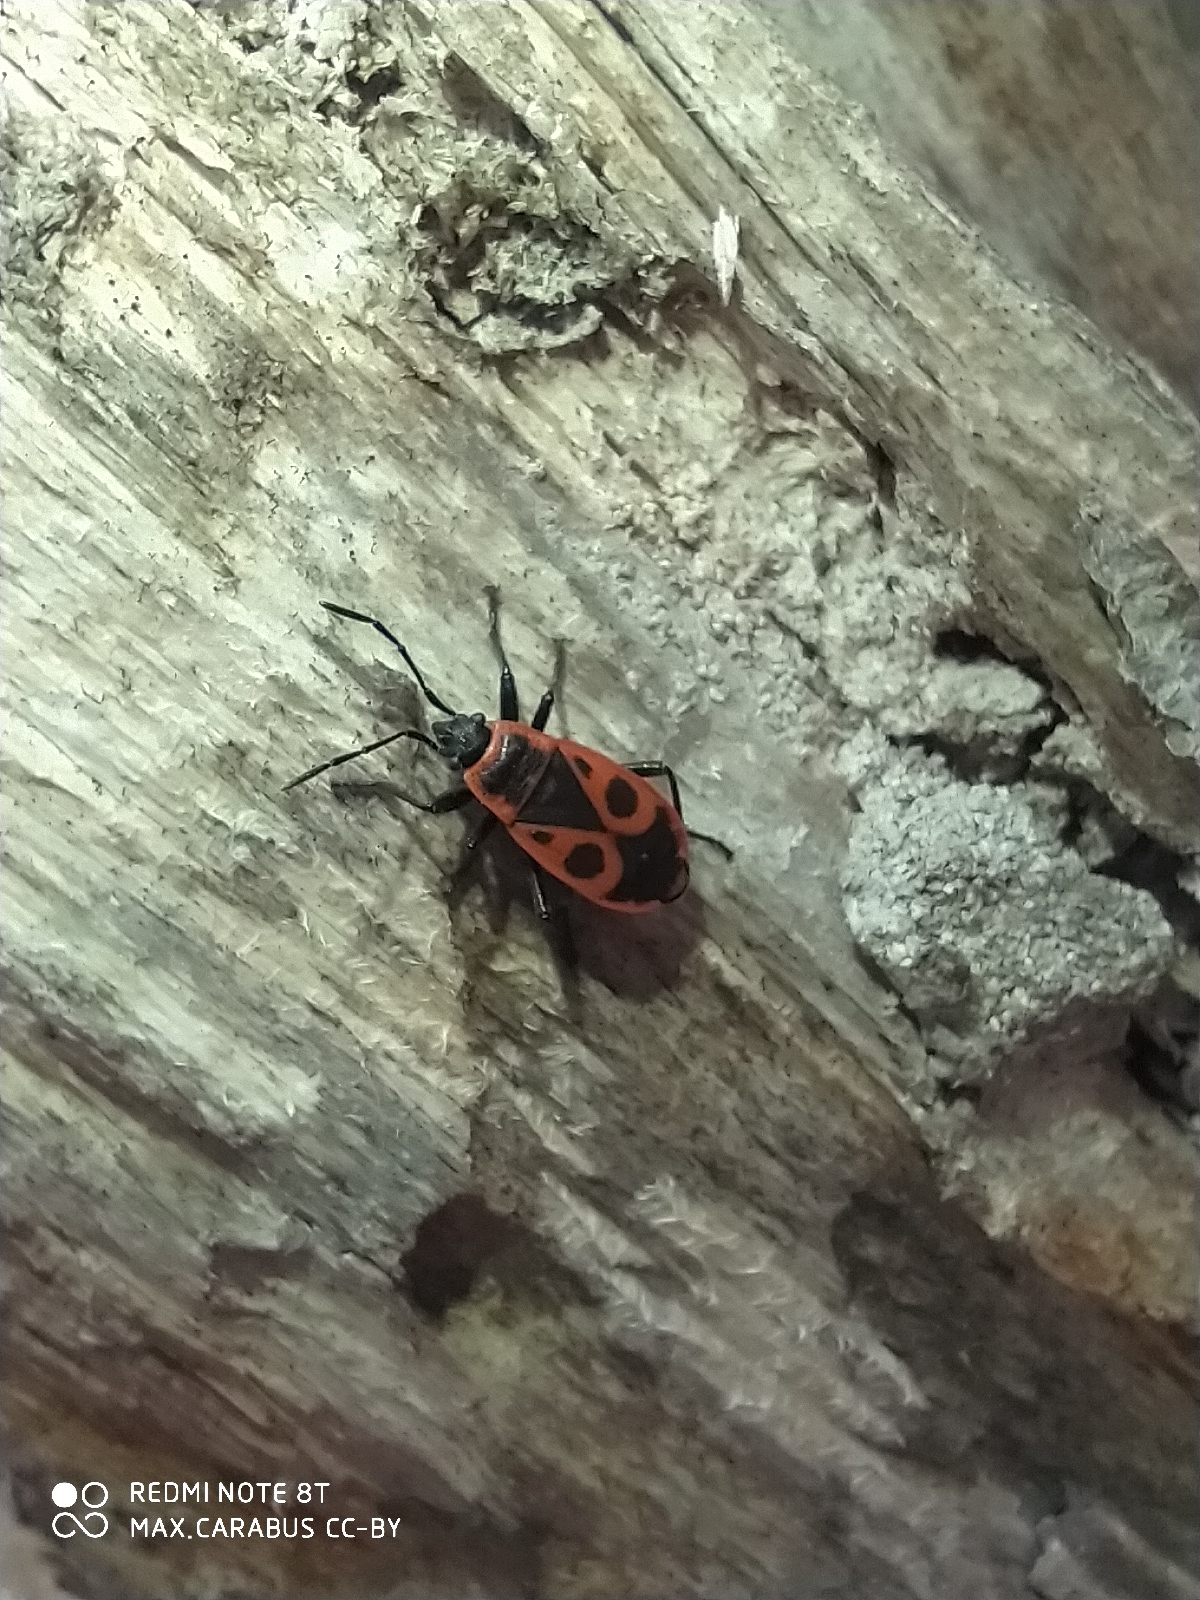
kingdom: Animalia
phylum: Arthropoda
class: Insecta
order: Hemiptera
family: Pyrrhocoridae
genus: Pyrrhocoris
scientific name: Pyrrhocoris apterus
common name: Firebug
